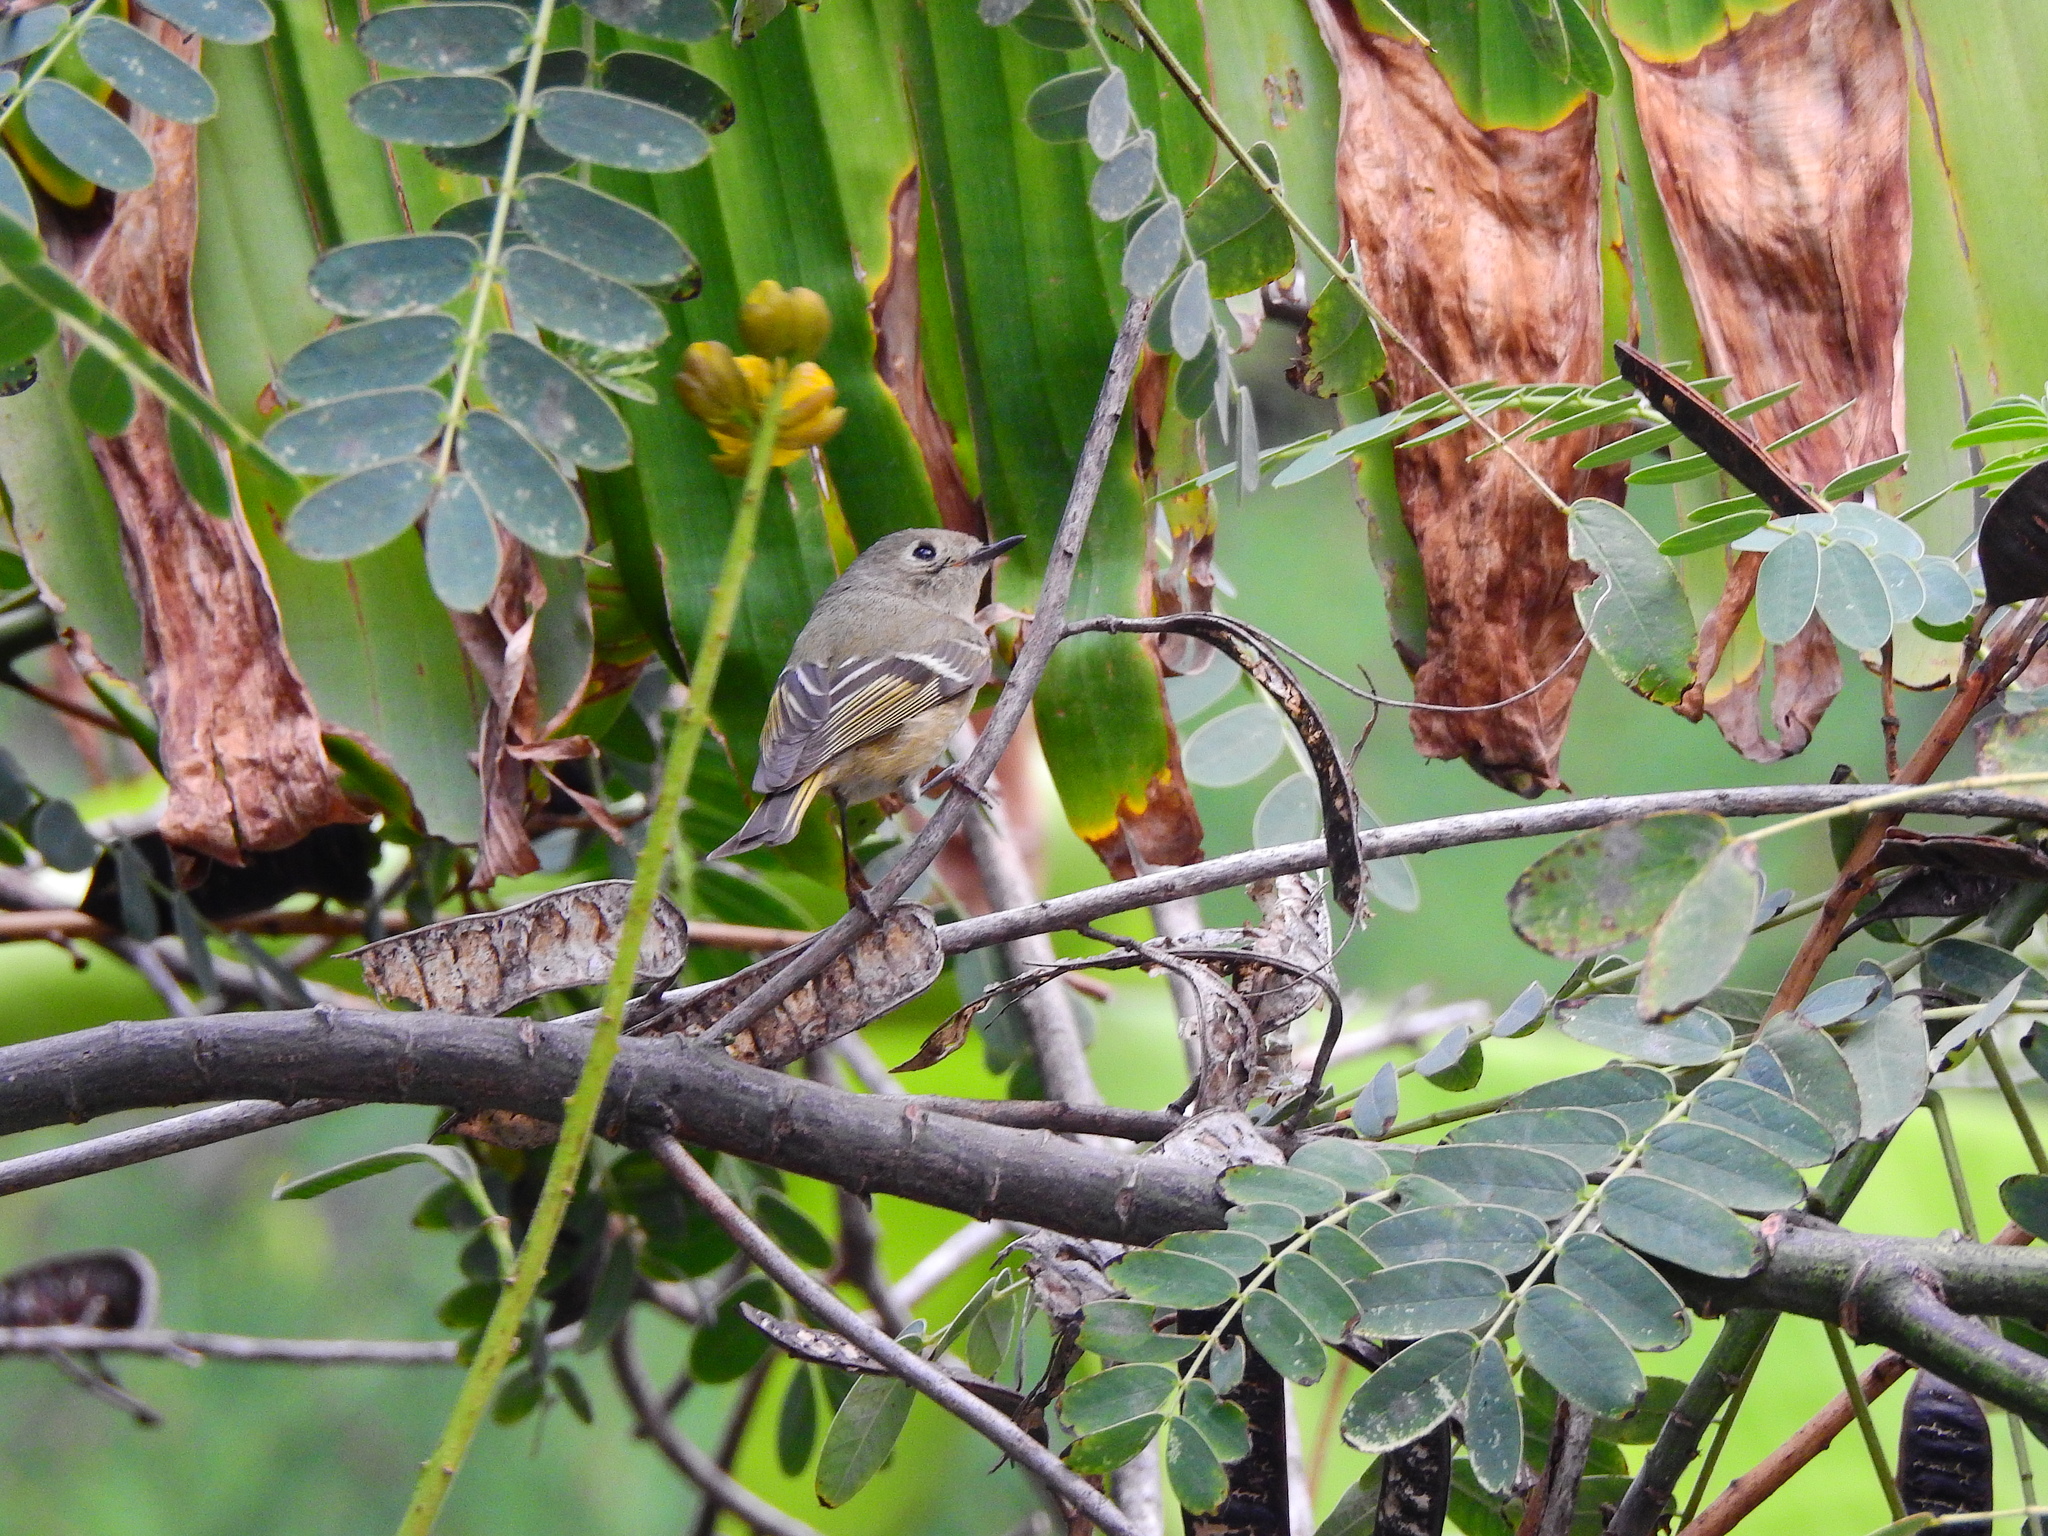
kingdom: Animalia
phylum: Chordata
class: Aves
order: Passeriformes
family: Regulidae
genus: Regulus
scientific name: Regulus calendula
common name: Ruby-crowned kinglet
